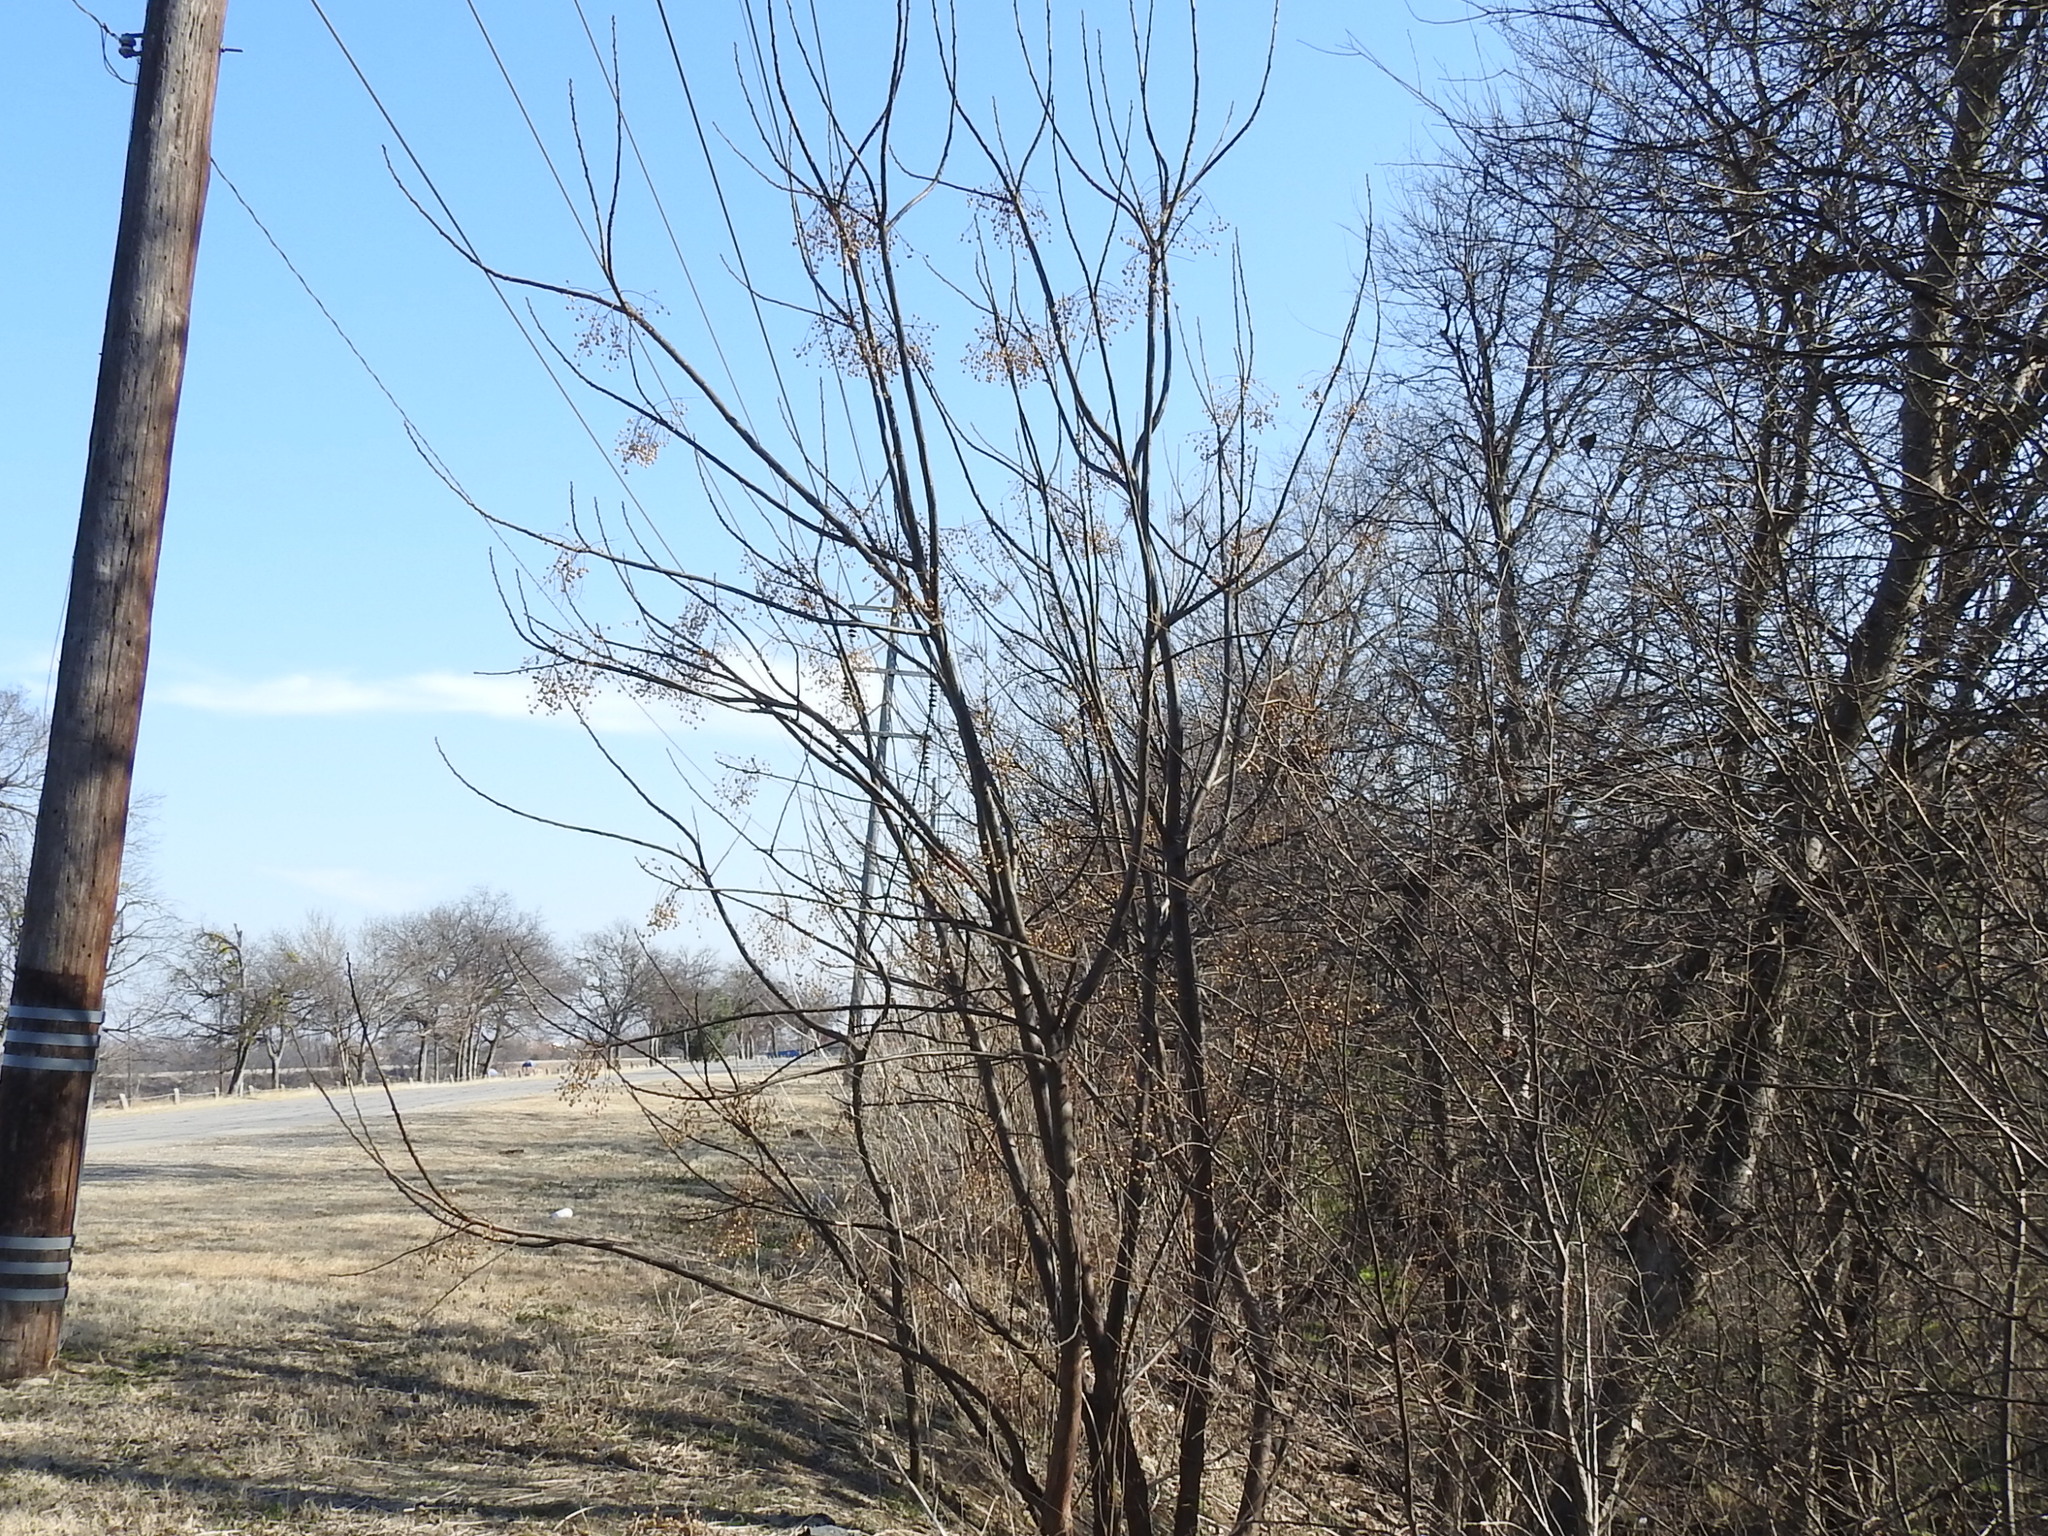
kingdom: Plantae
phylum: Tracheophyta
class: Magnoliopsida
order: Sapindales
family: Meliaceae
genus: Melia
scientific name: Melia azedarach
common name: Chinaberrytree
